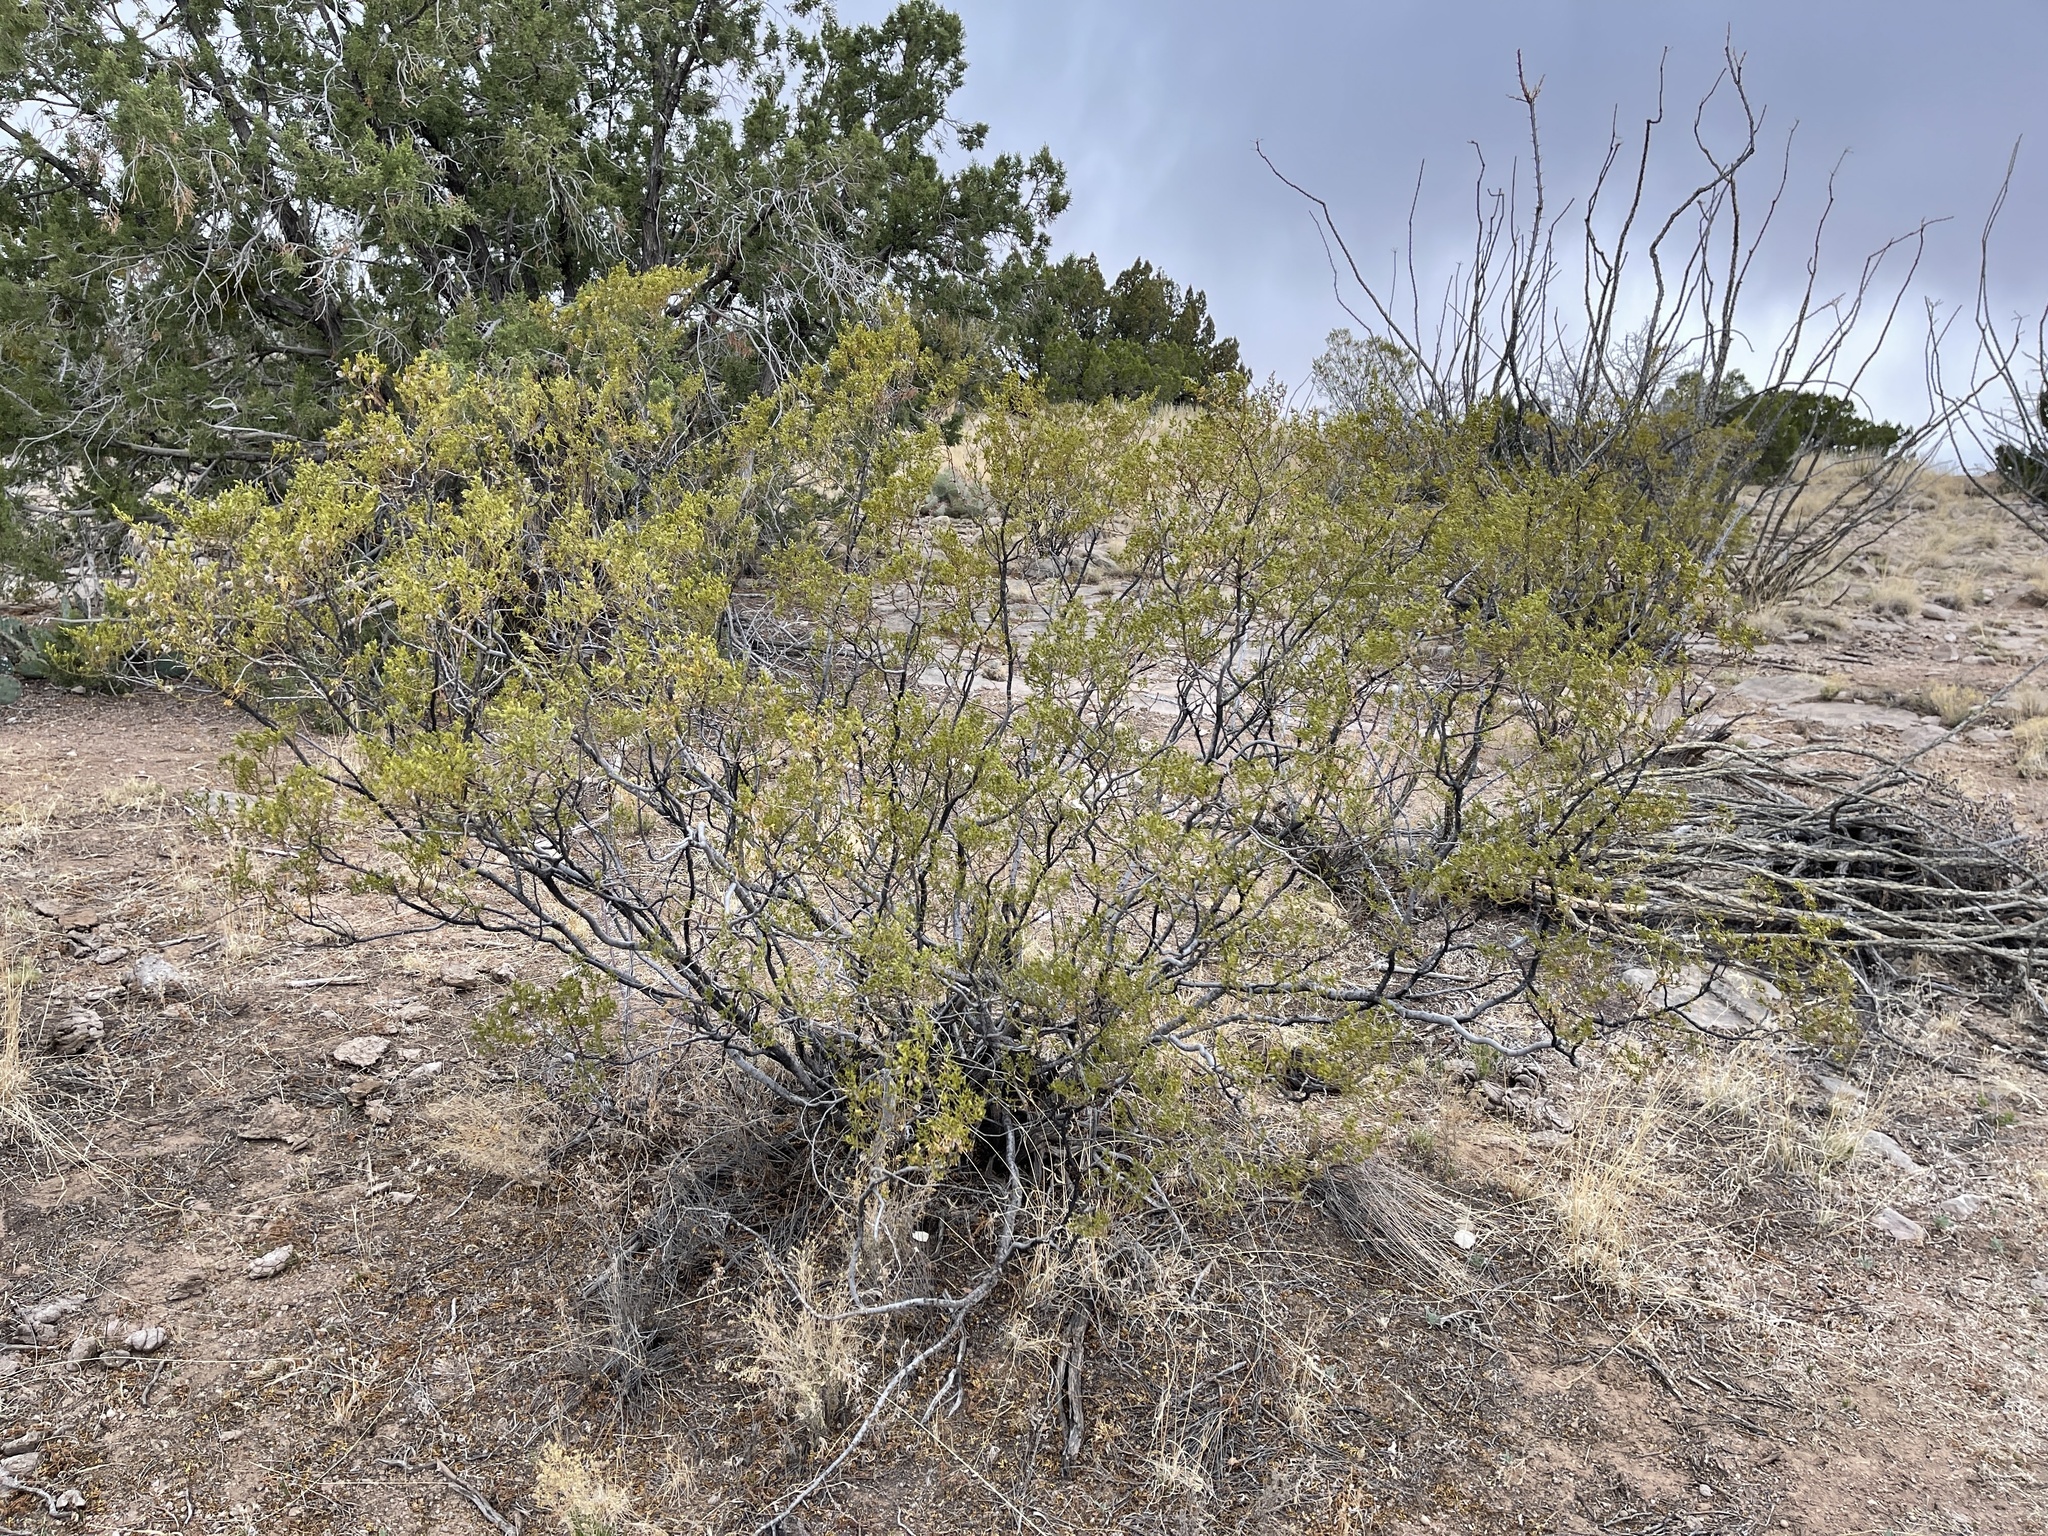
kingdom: Plantae
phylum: Tracheophyta
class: Magnoliopsida
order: Zygophyllales
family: Zygophyllaceae
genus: Larrea
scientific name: Larrea tridentata
